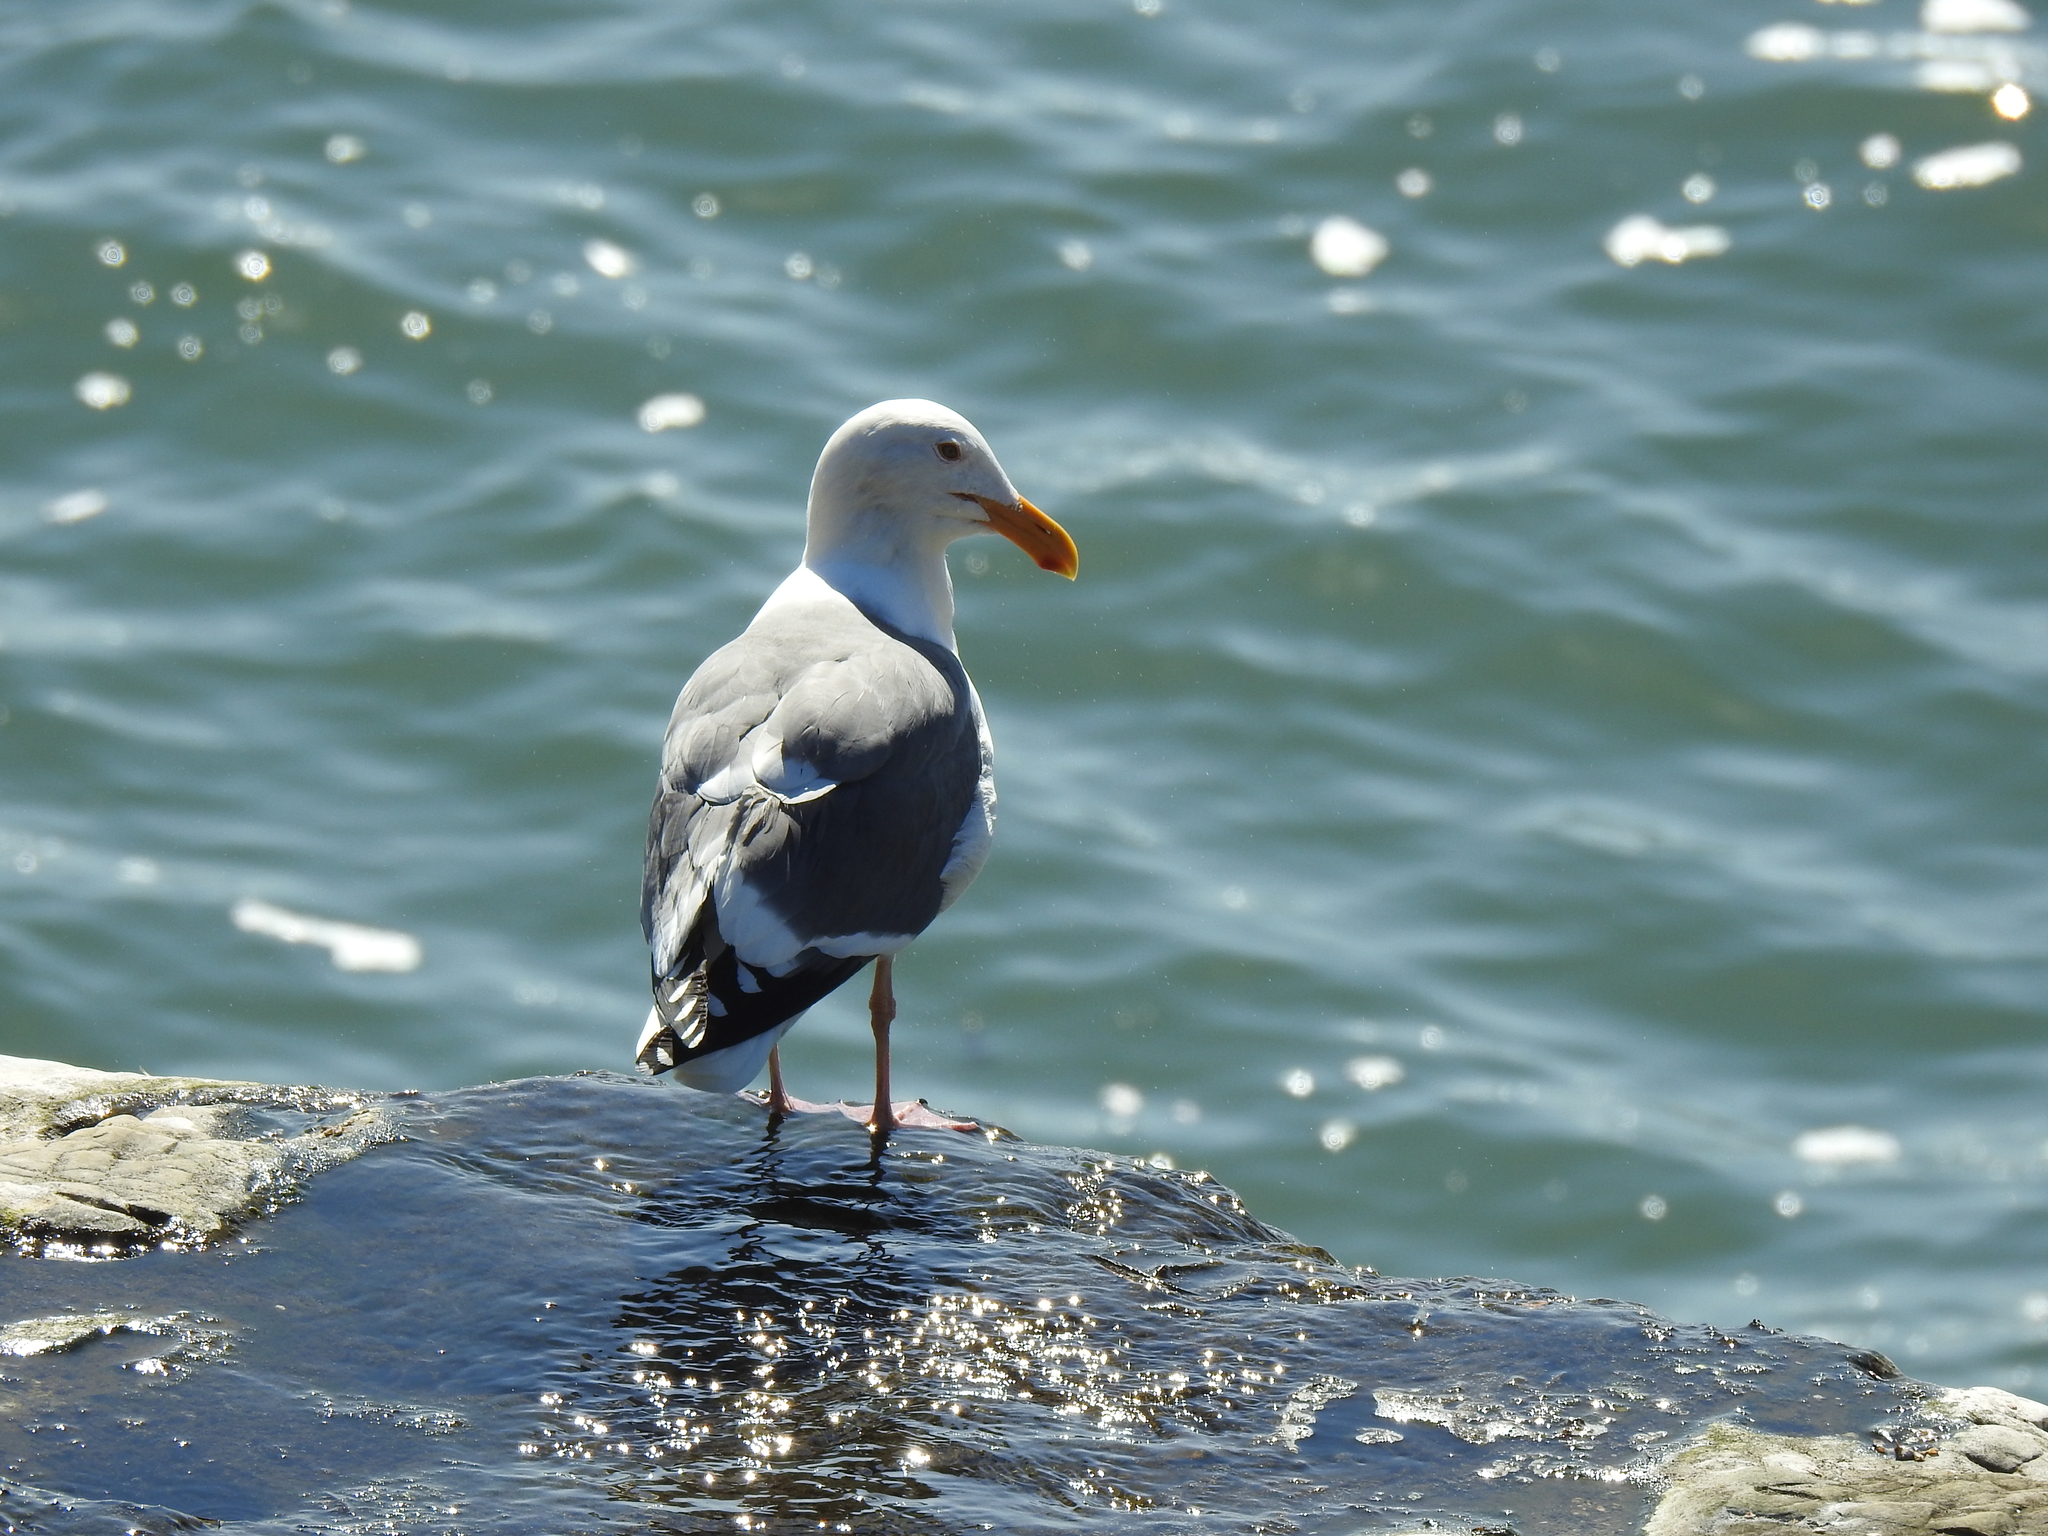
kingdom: Animalia
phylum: Chordata
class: Aves
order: Charadriiformes
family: Laridae
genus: Larus
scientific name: Larus occidentalis
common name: Western gull
